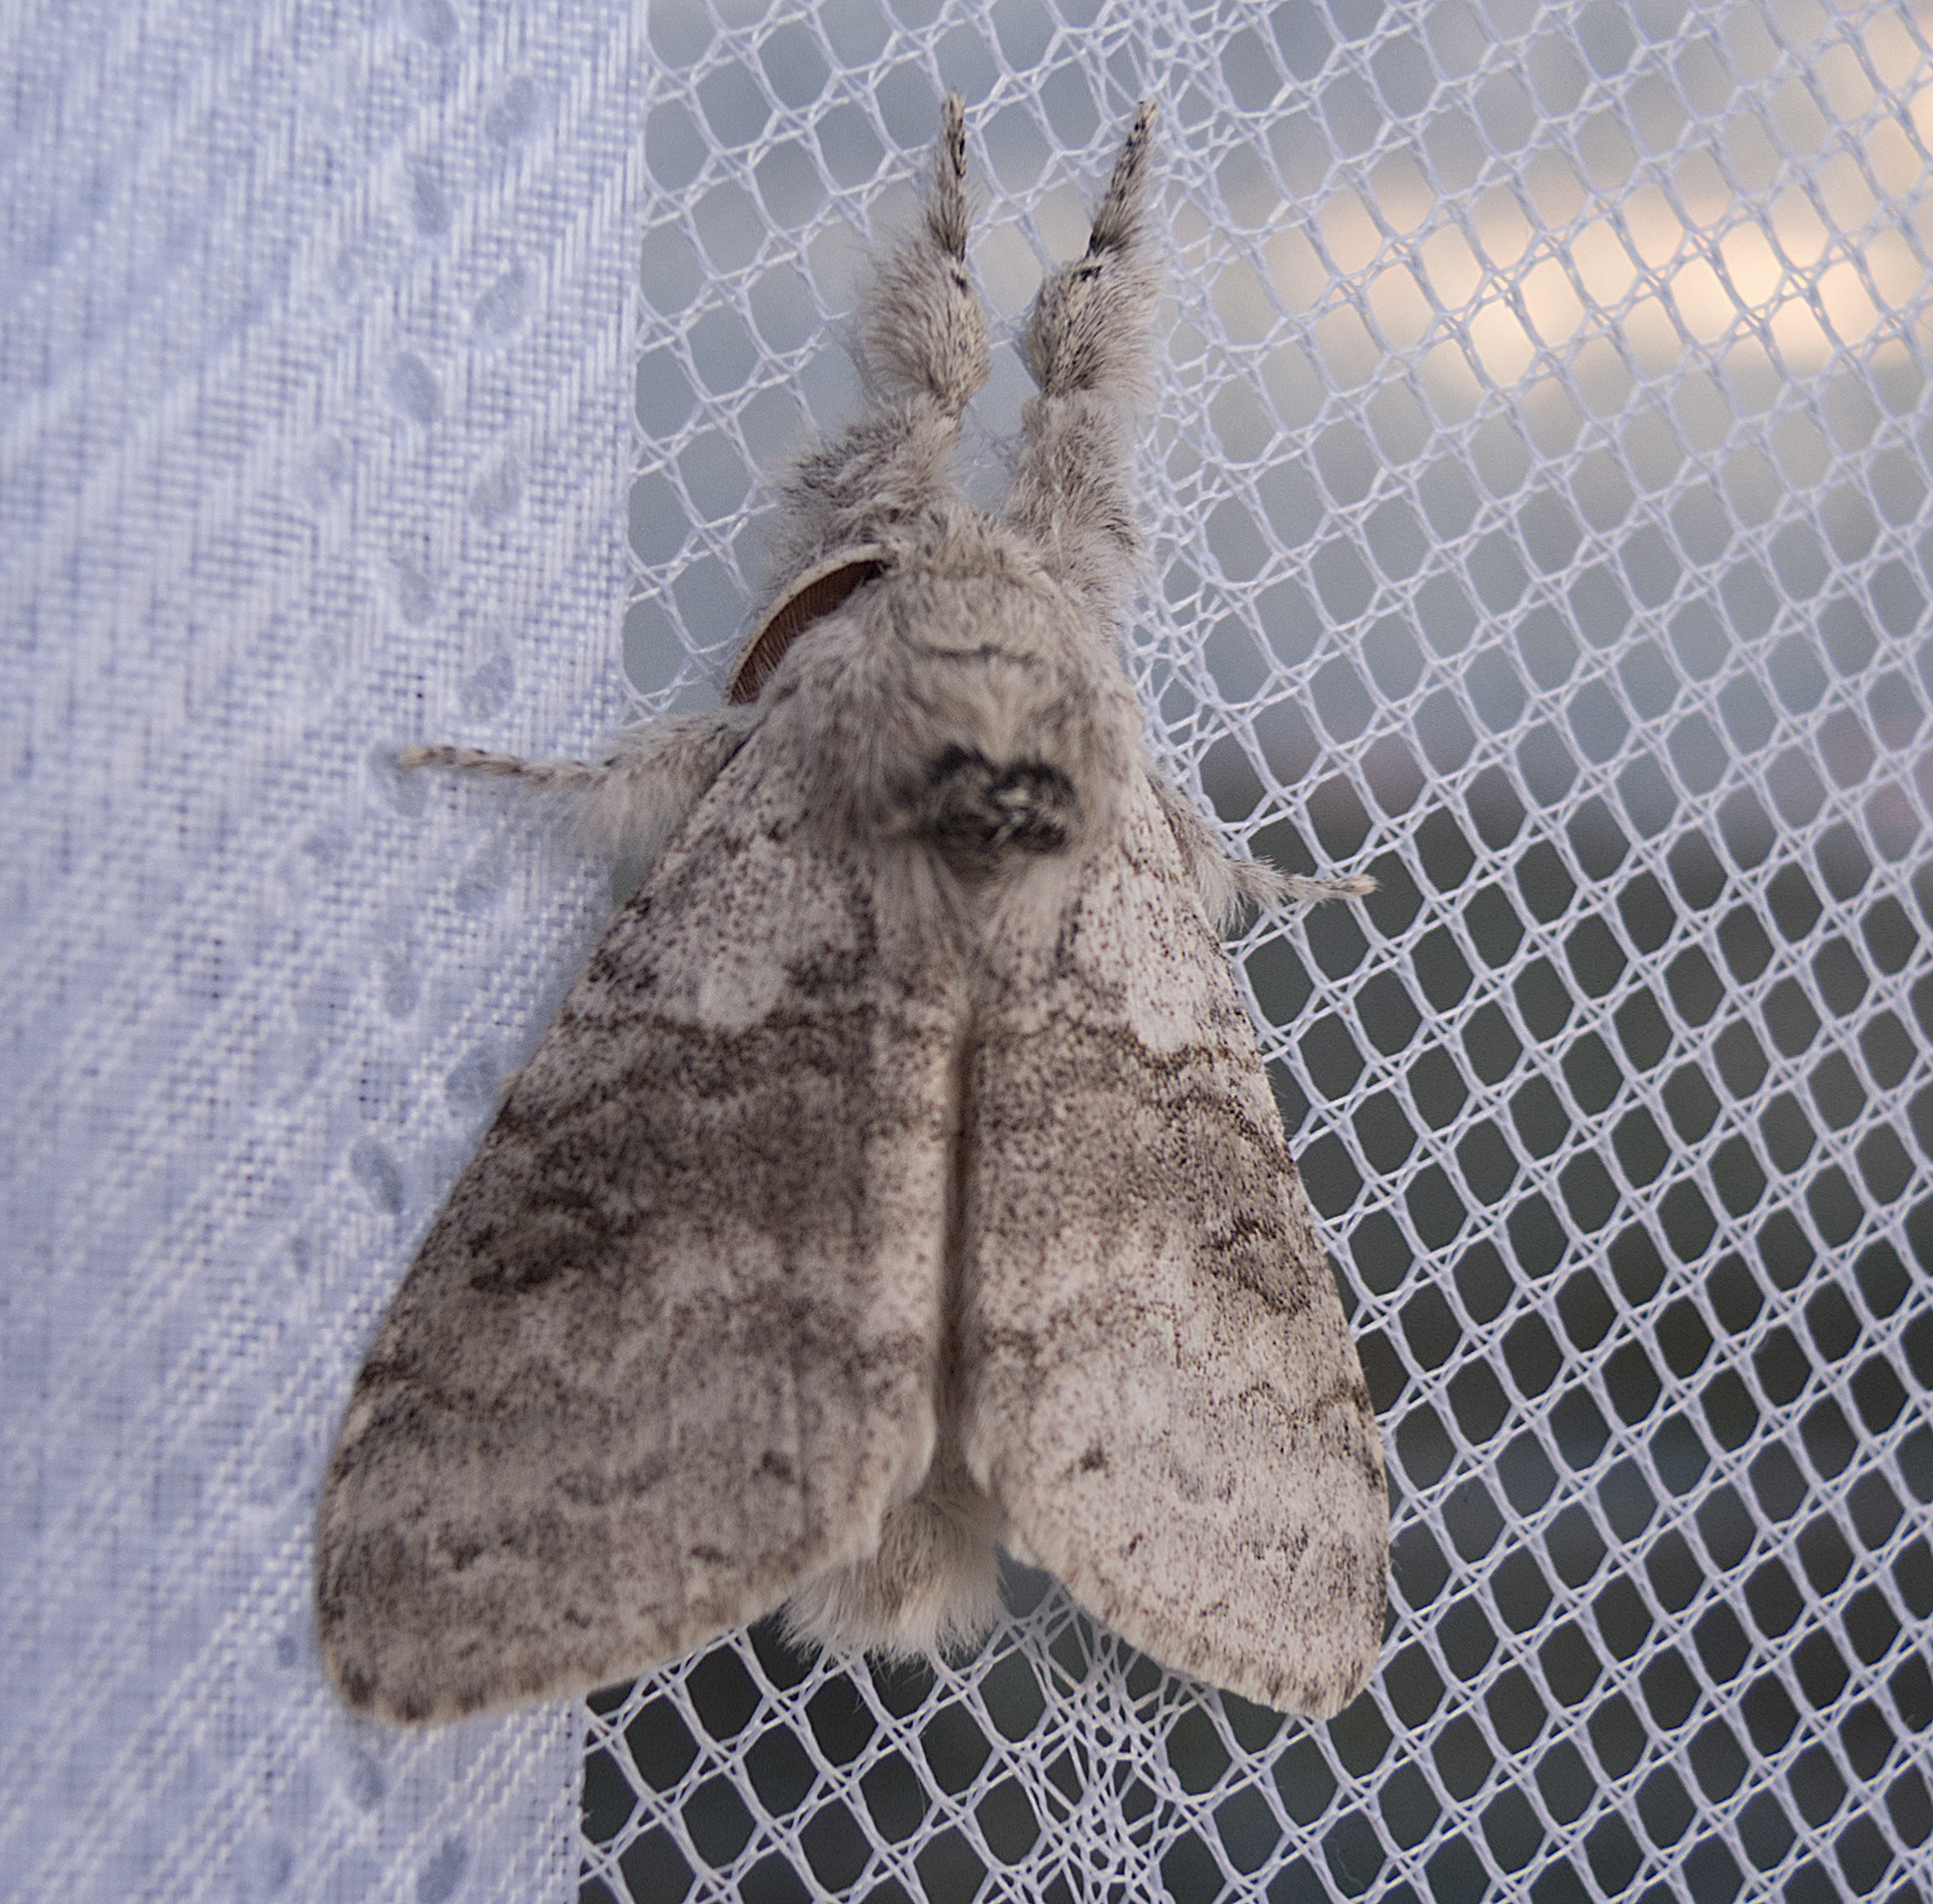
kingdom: Animalia
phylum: Arthropoda
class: Insecta
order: Lepidoptera
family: Erebidae
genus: Calliteara
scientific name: Calliteara pudibunda
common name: Pale tussock
